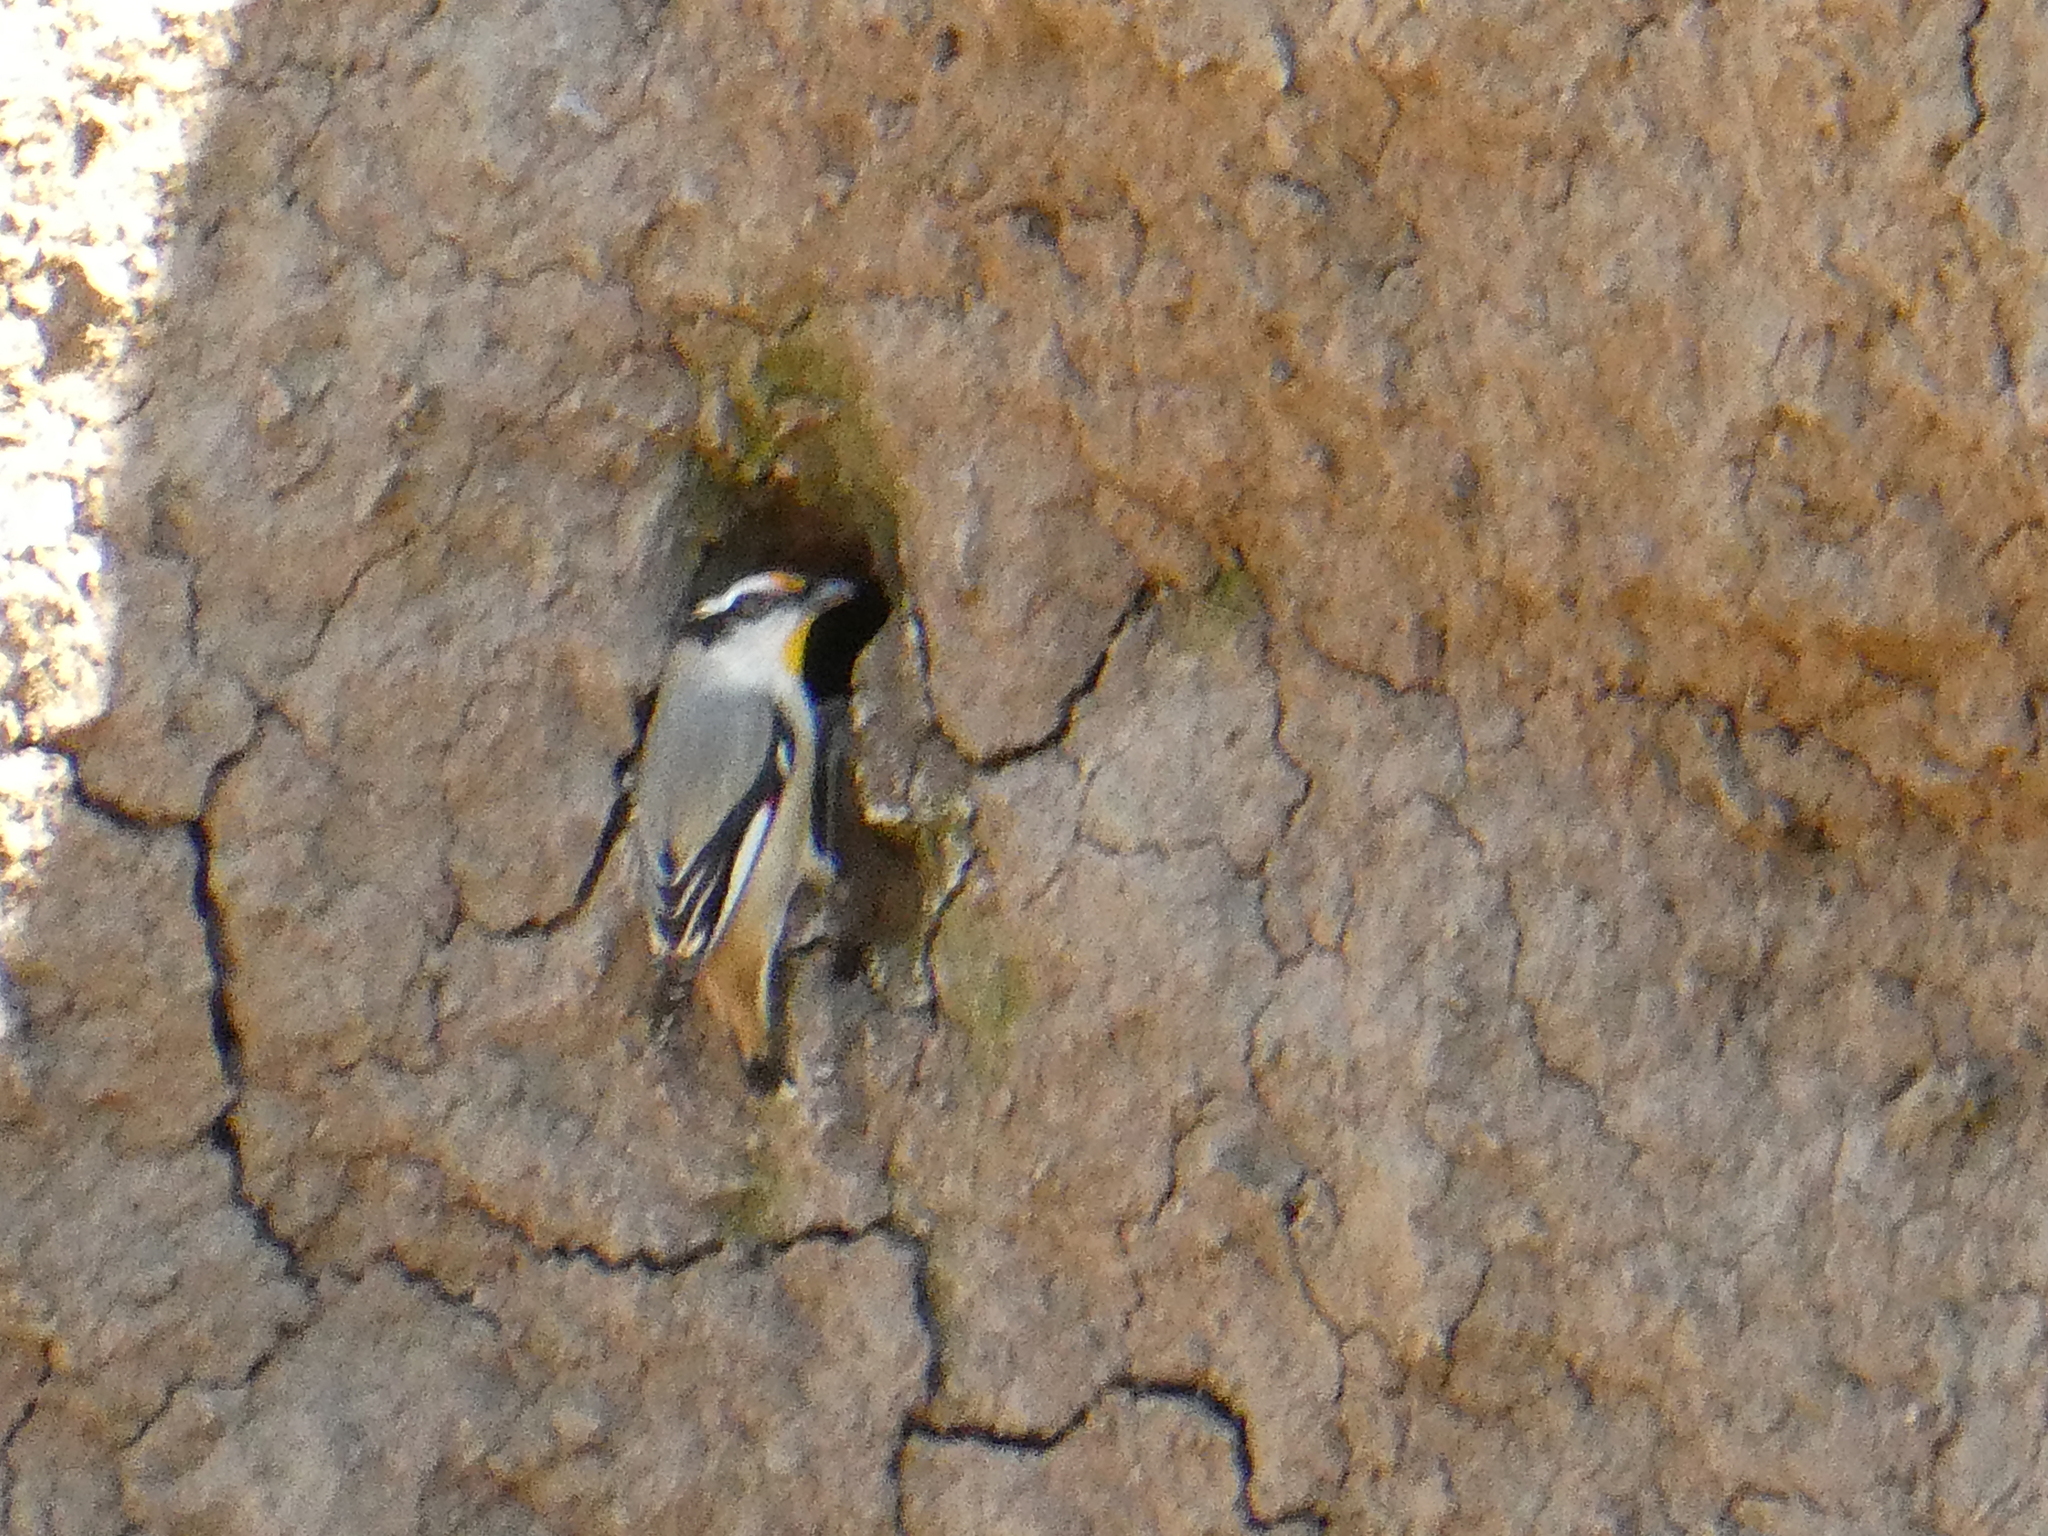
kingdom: Animalia
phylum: Chordata
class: Aves
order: Passeriformes
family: Pardalotidae
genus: Pardalotus
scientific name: Pardalotus striatus
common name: Striated pardalote
